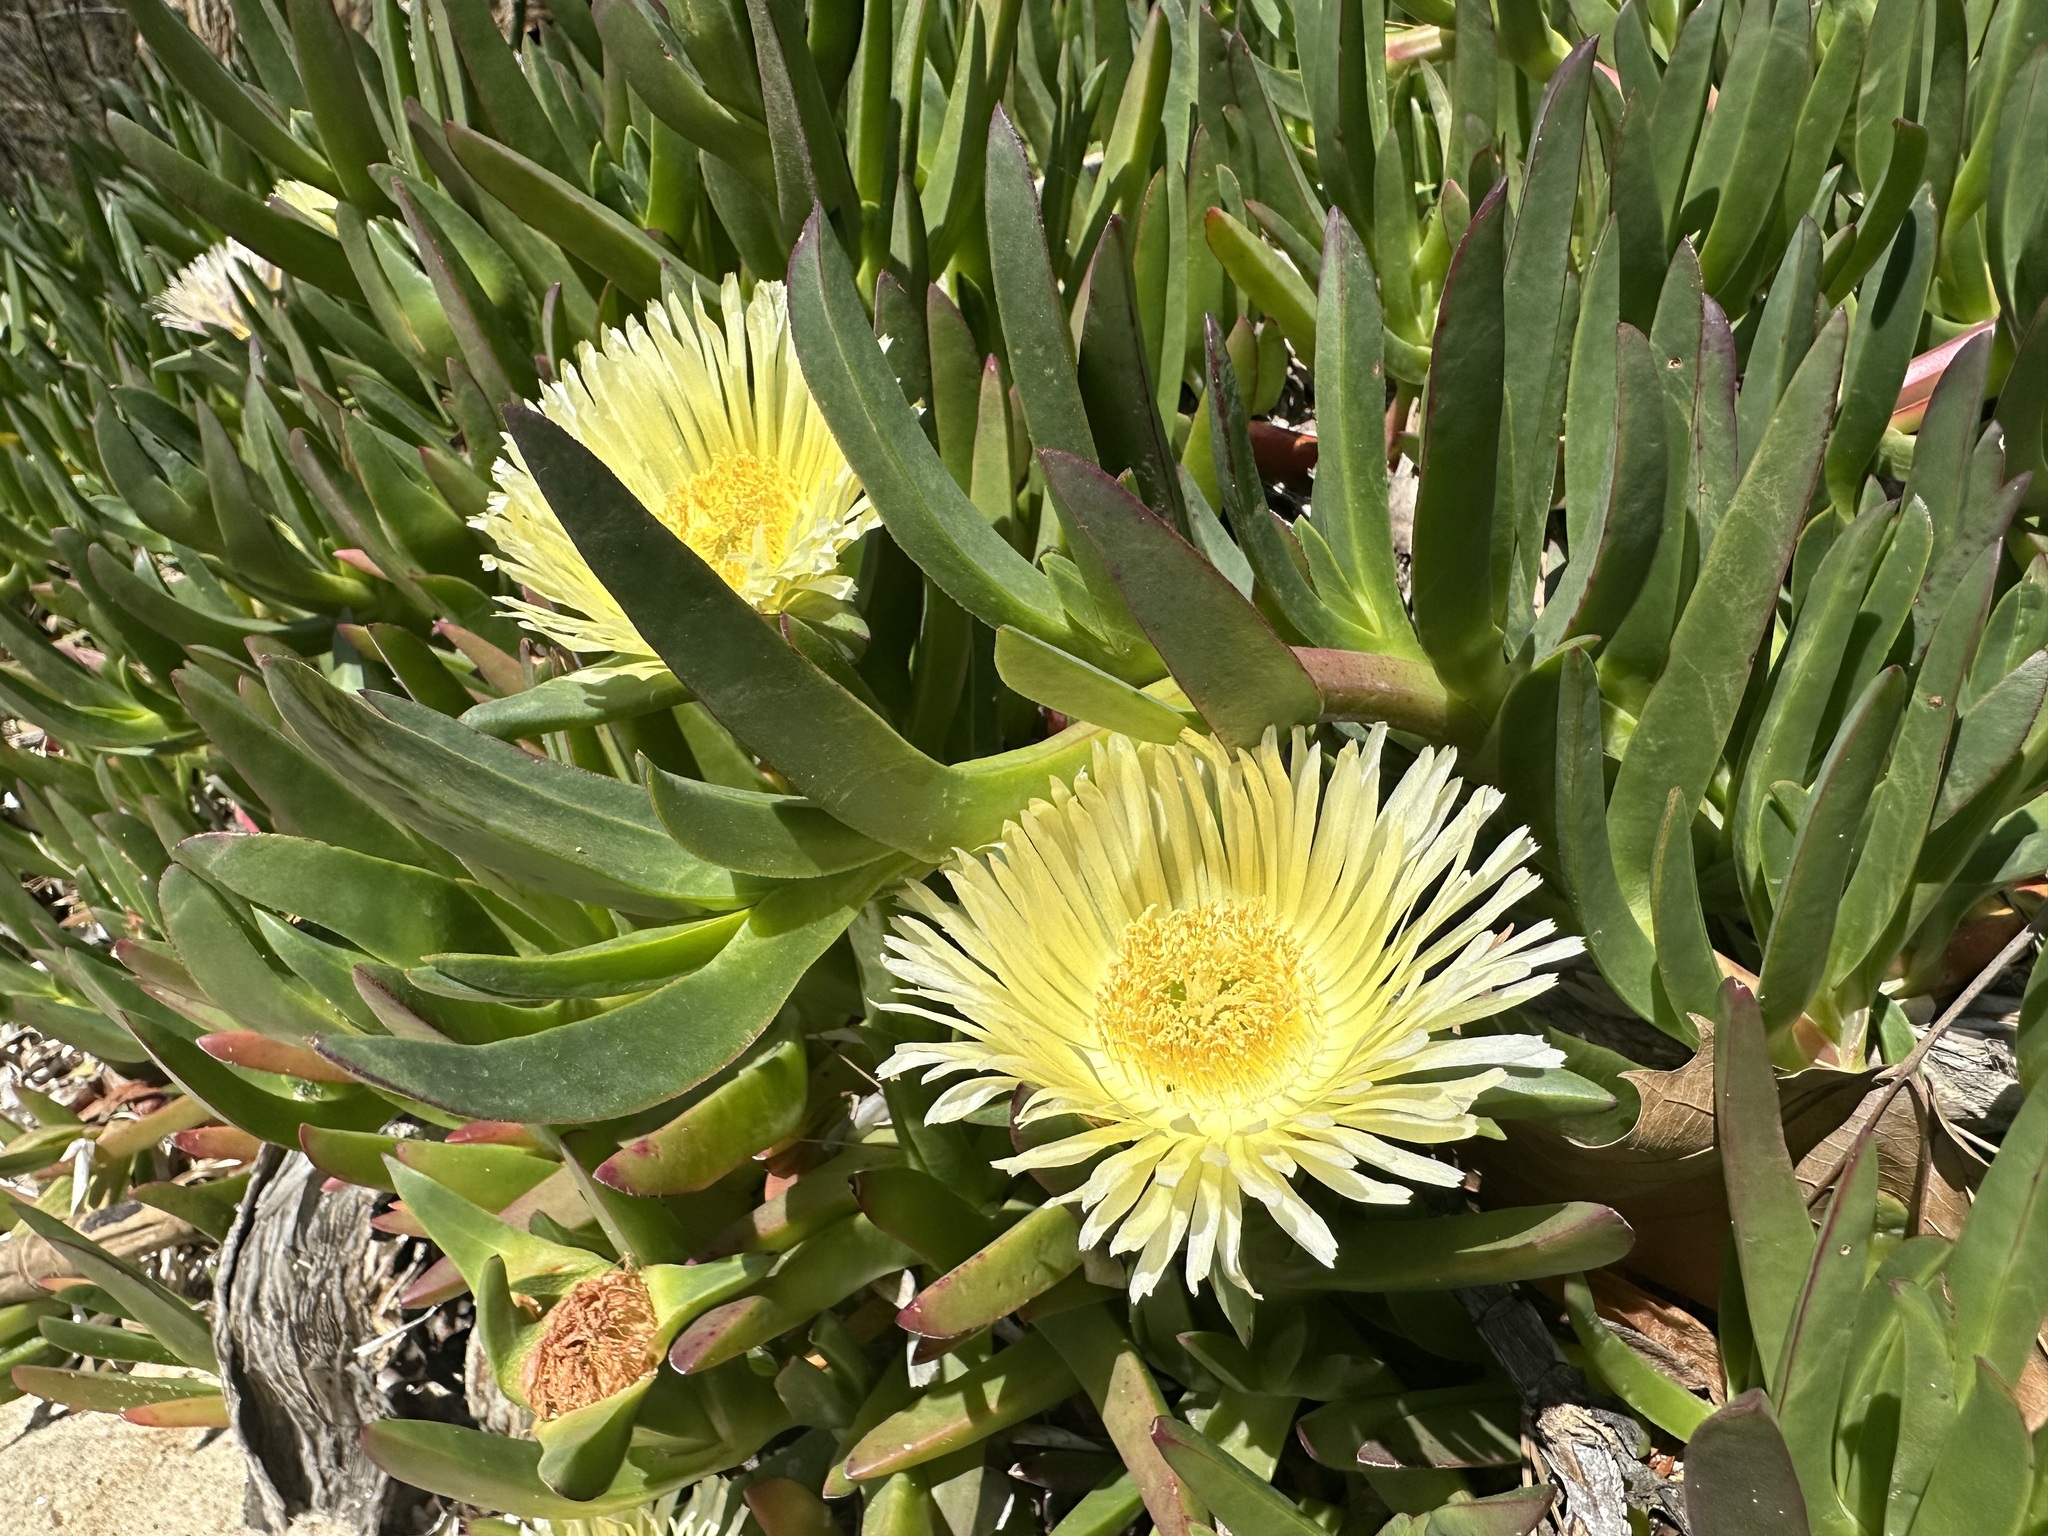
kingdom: Plantae
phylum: Tracheophyta
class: Magnoliopsida
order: Caryophyllales
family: Aizoaceae
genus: Carpobrotus
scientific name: Carpobrotus edulis
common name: Hottentot-fig
